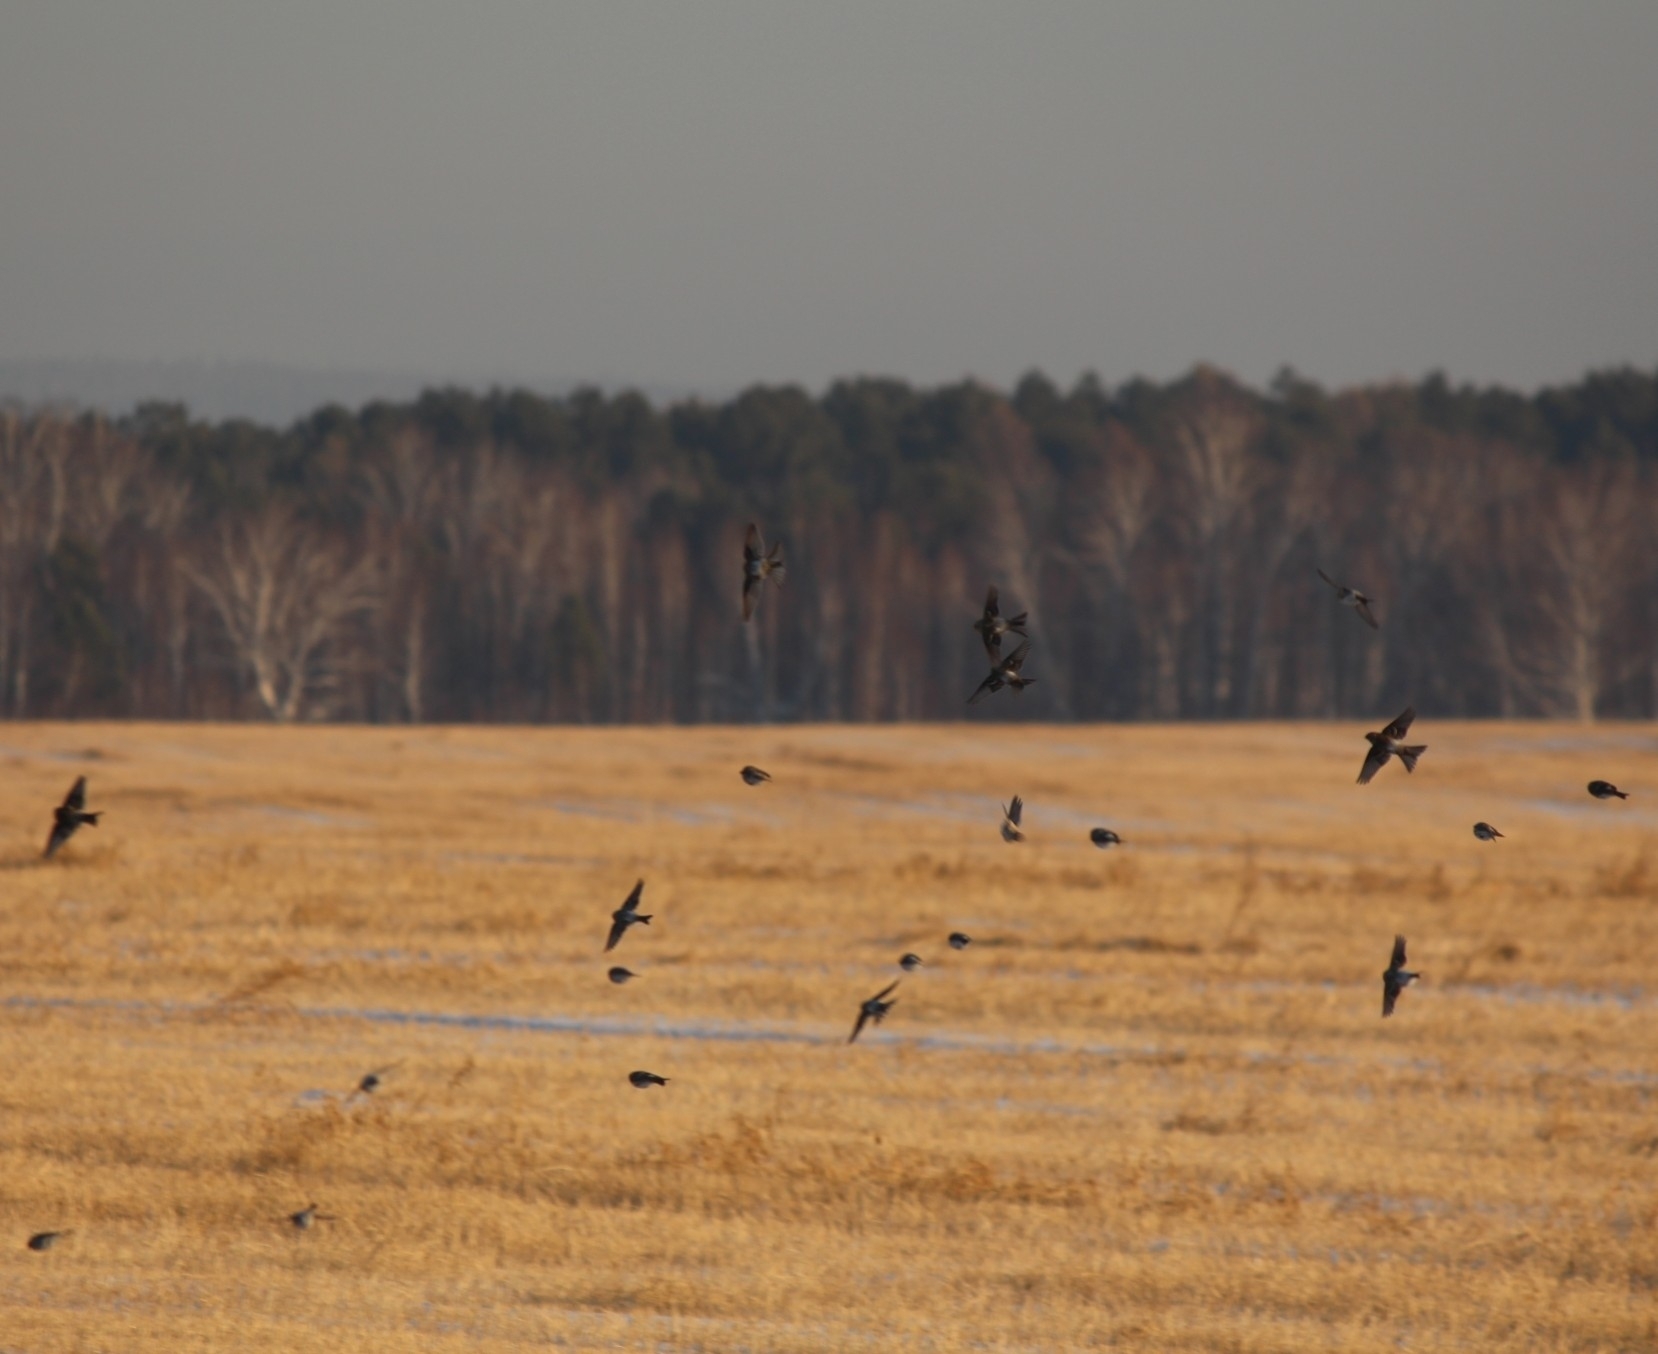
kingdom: Animalia
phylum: Chordata
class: Aves
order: Passeriformes
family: Fringillidae
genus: Acanthis
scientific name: Acanthis flammea
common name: Common redpoll
